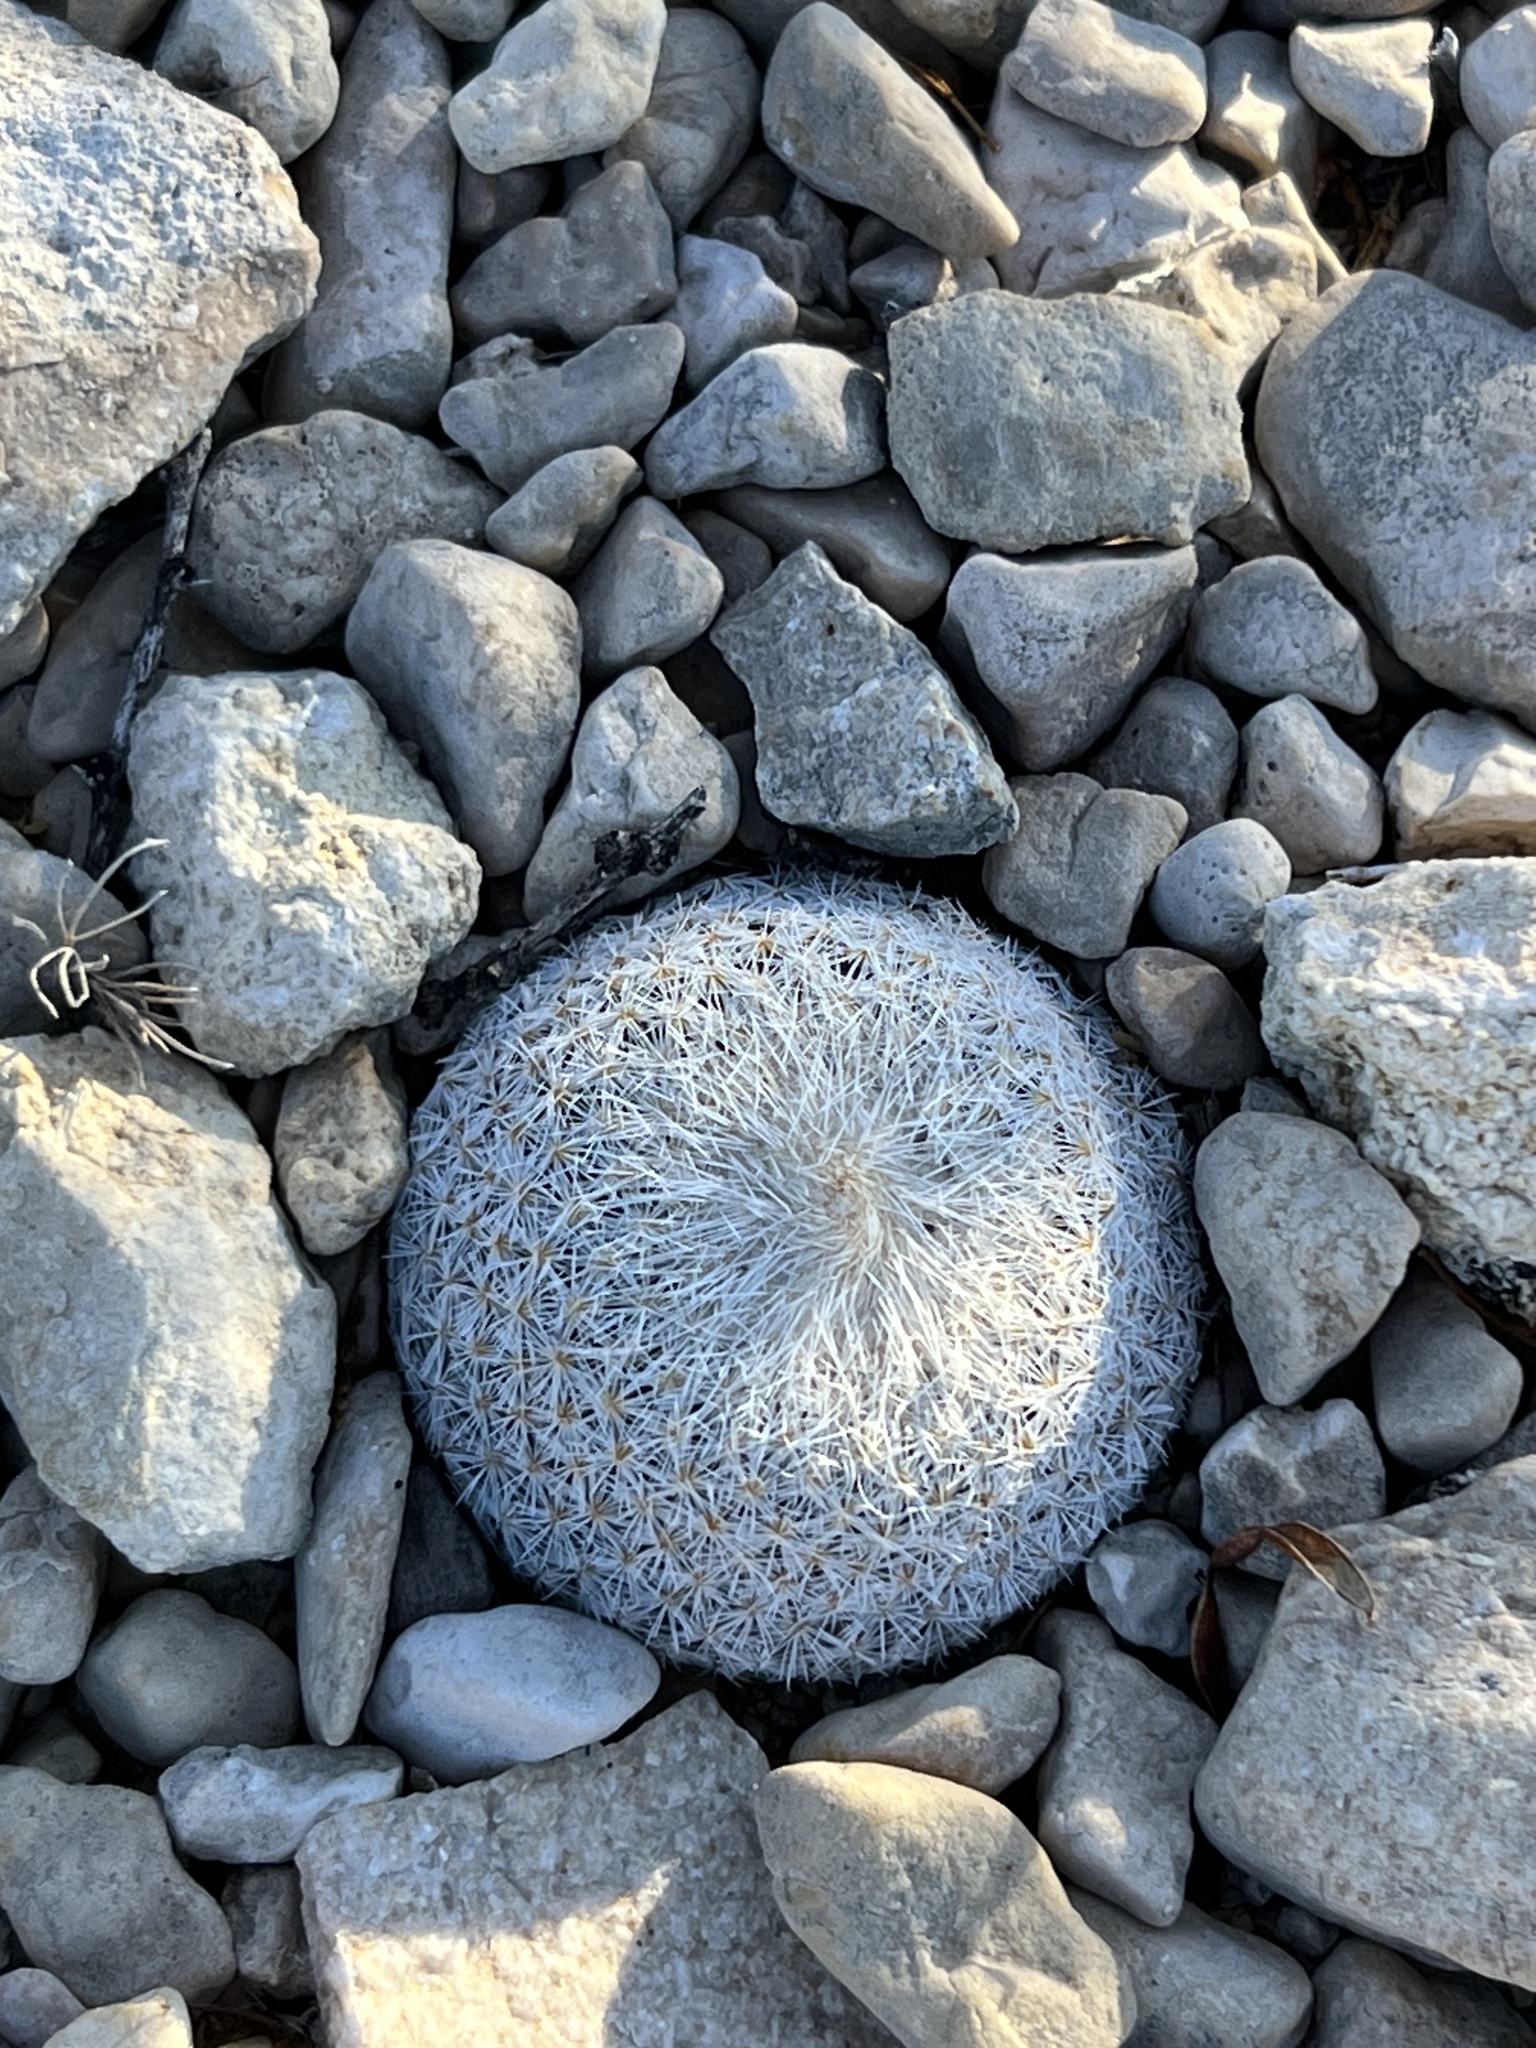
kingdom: Plantae
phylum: Tracheophyta
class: Magnoliopsida
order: Caryophyllales
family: Cactaceae
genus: Epithelantha
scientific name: Epithelantha micromeris
